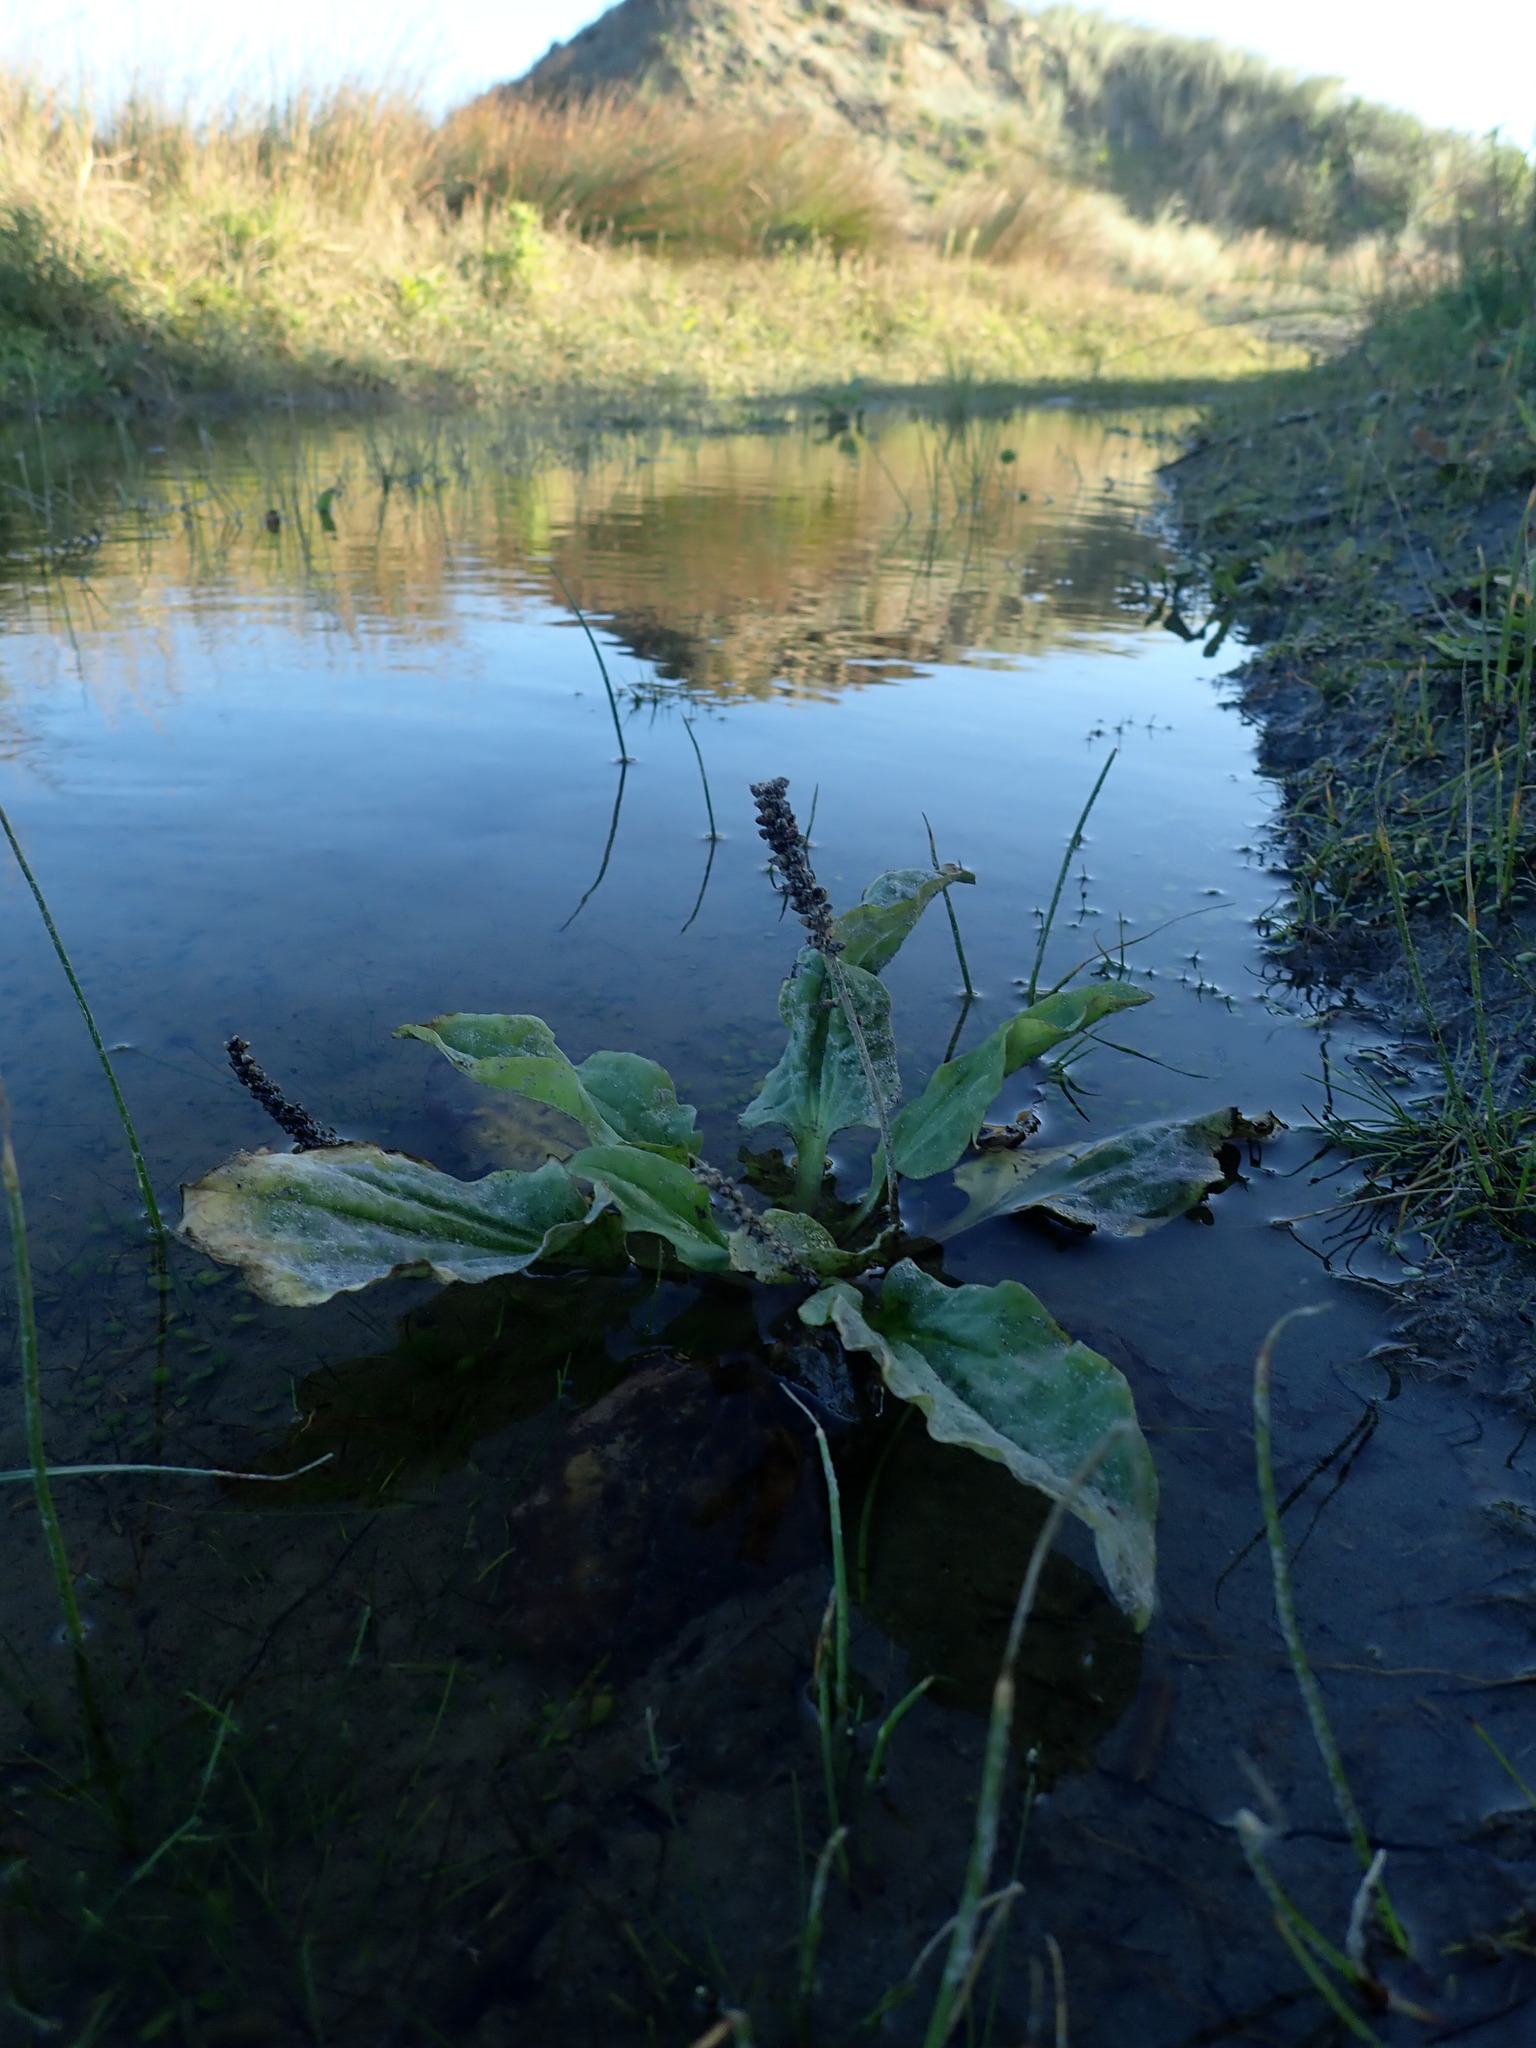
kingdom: Plantae
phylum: Tracheophyta
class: Magnoliopsida
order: Lamiales
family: Plantaginaceae
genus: Plantago
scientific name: Plantago major
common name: Common plantain
